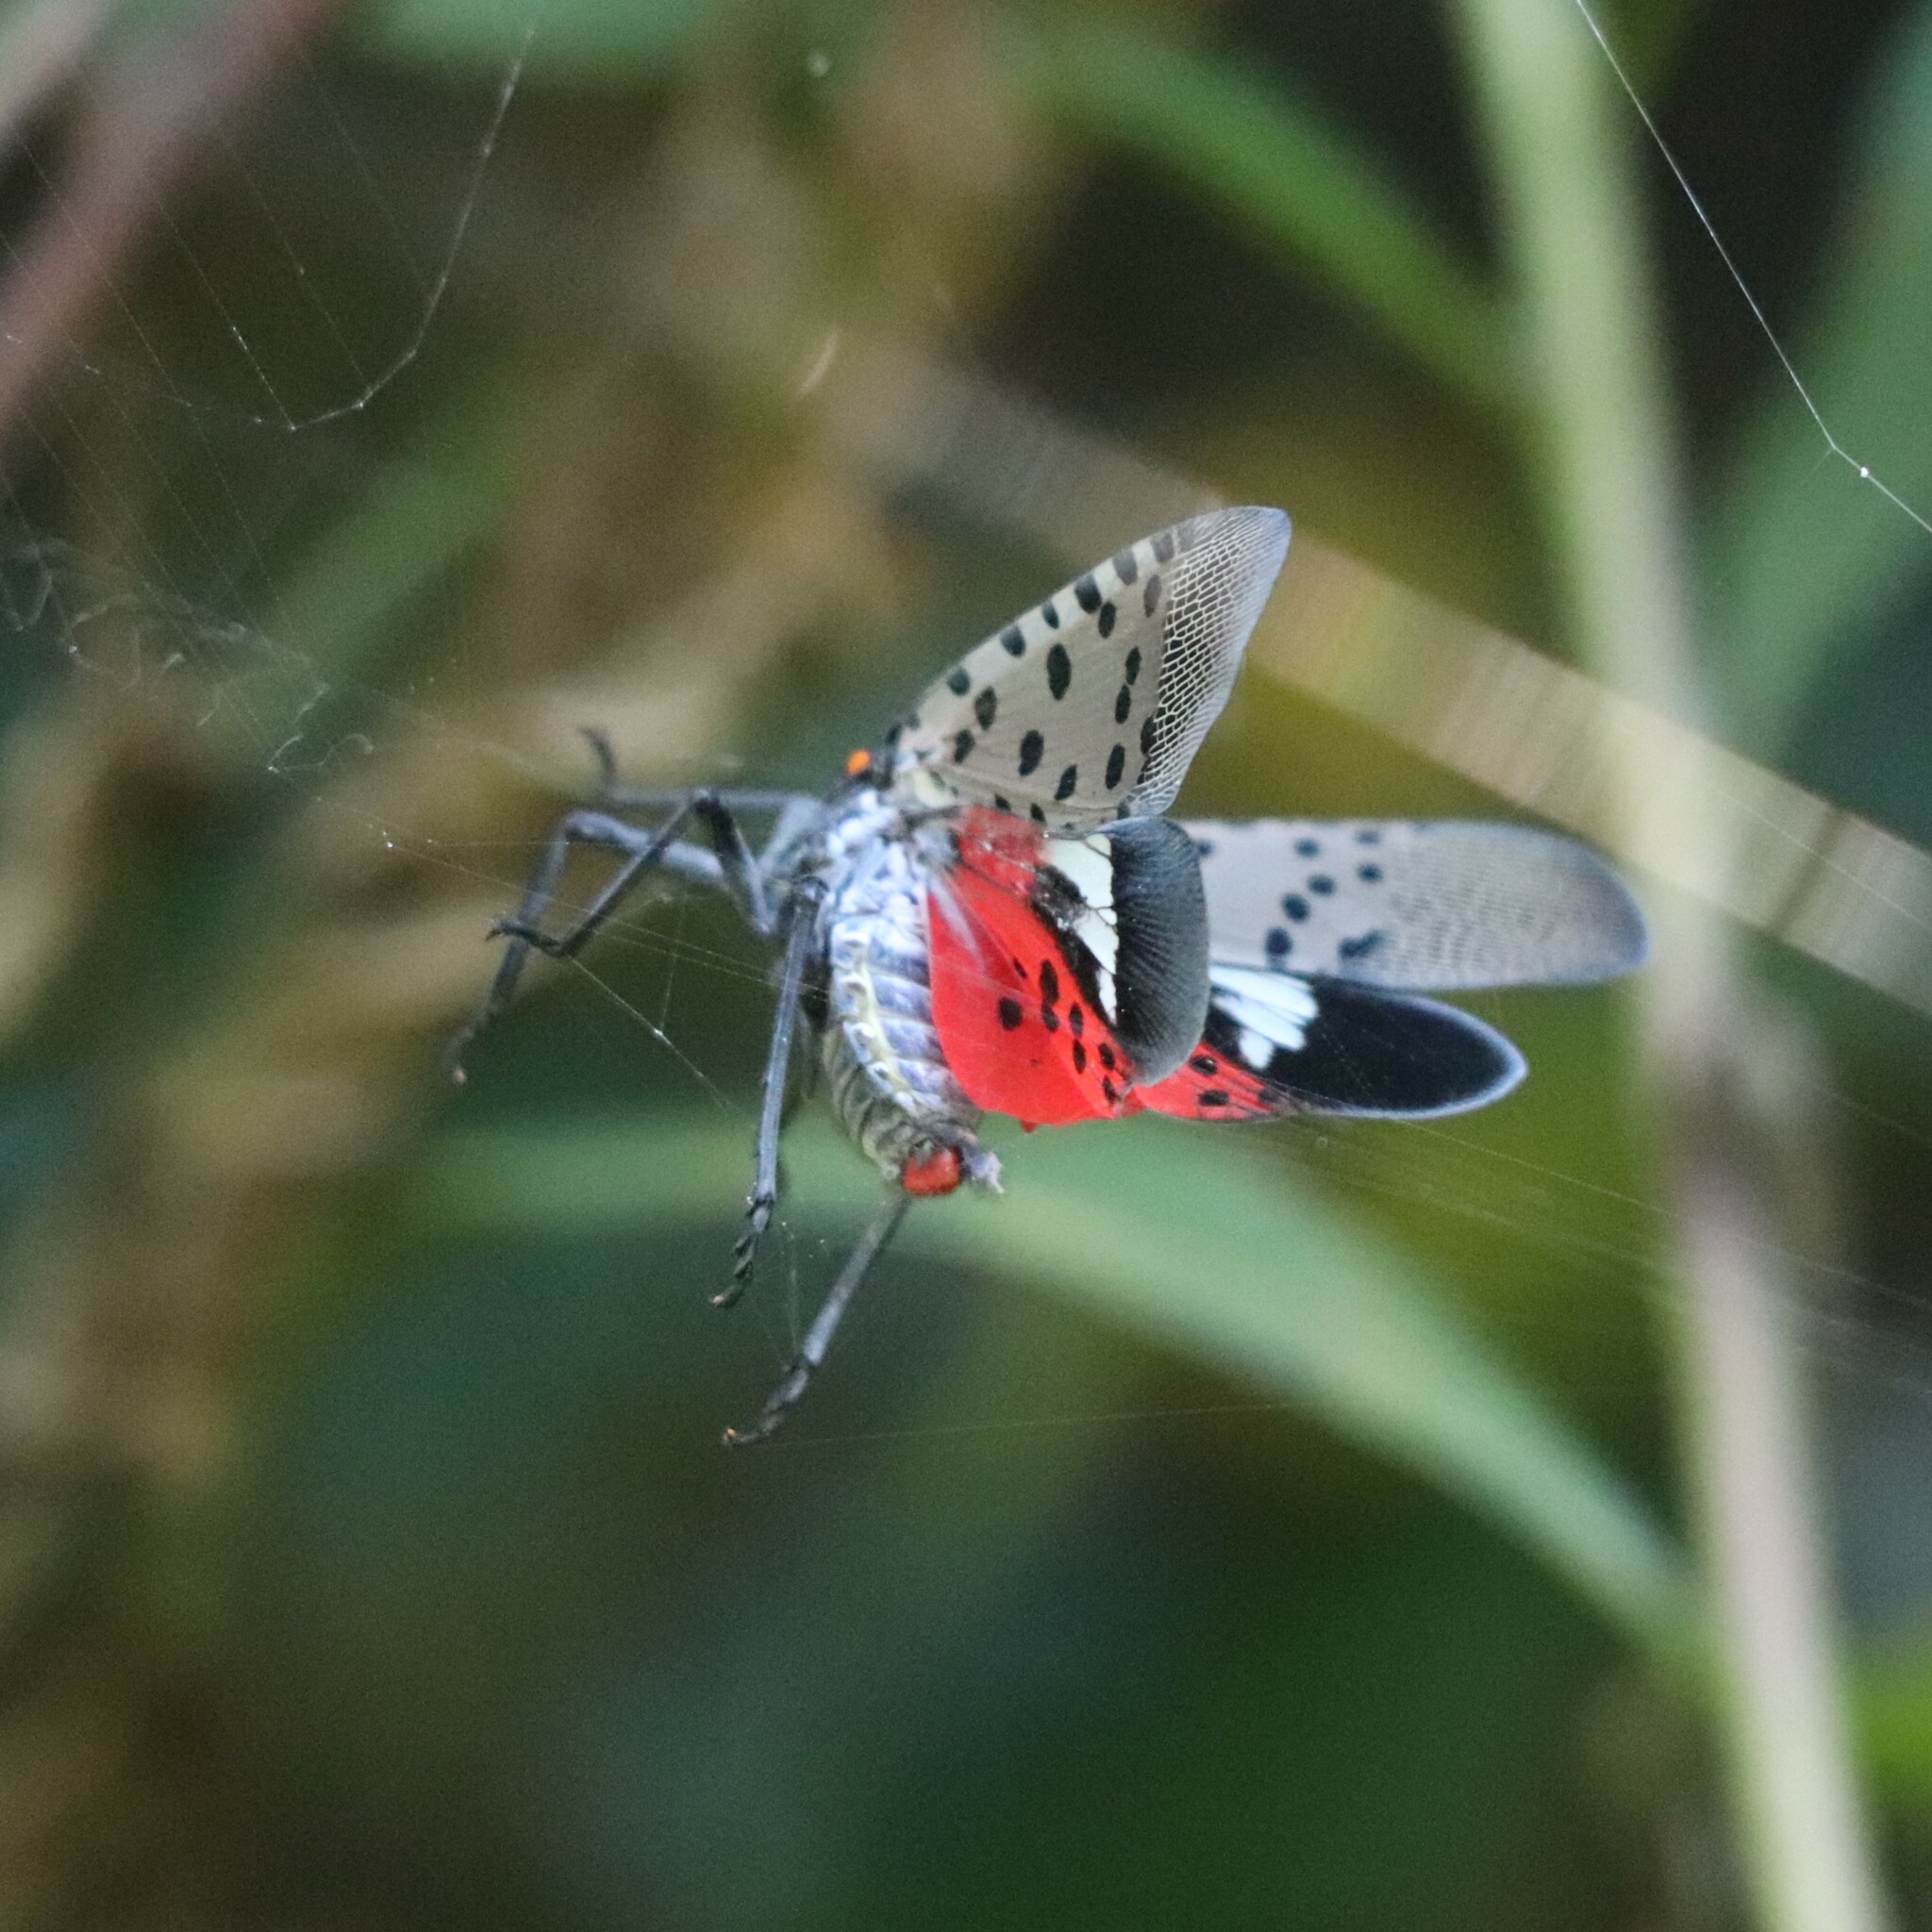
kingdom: Animalia
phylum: Arthropoda
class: Insecta
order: Hemiptera
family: Fulgoridae
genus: Lycorma
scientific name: Lycorma delicatula
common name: Spotted lanternfly
